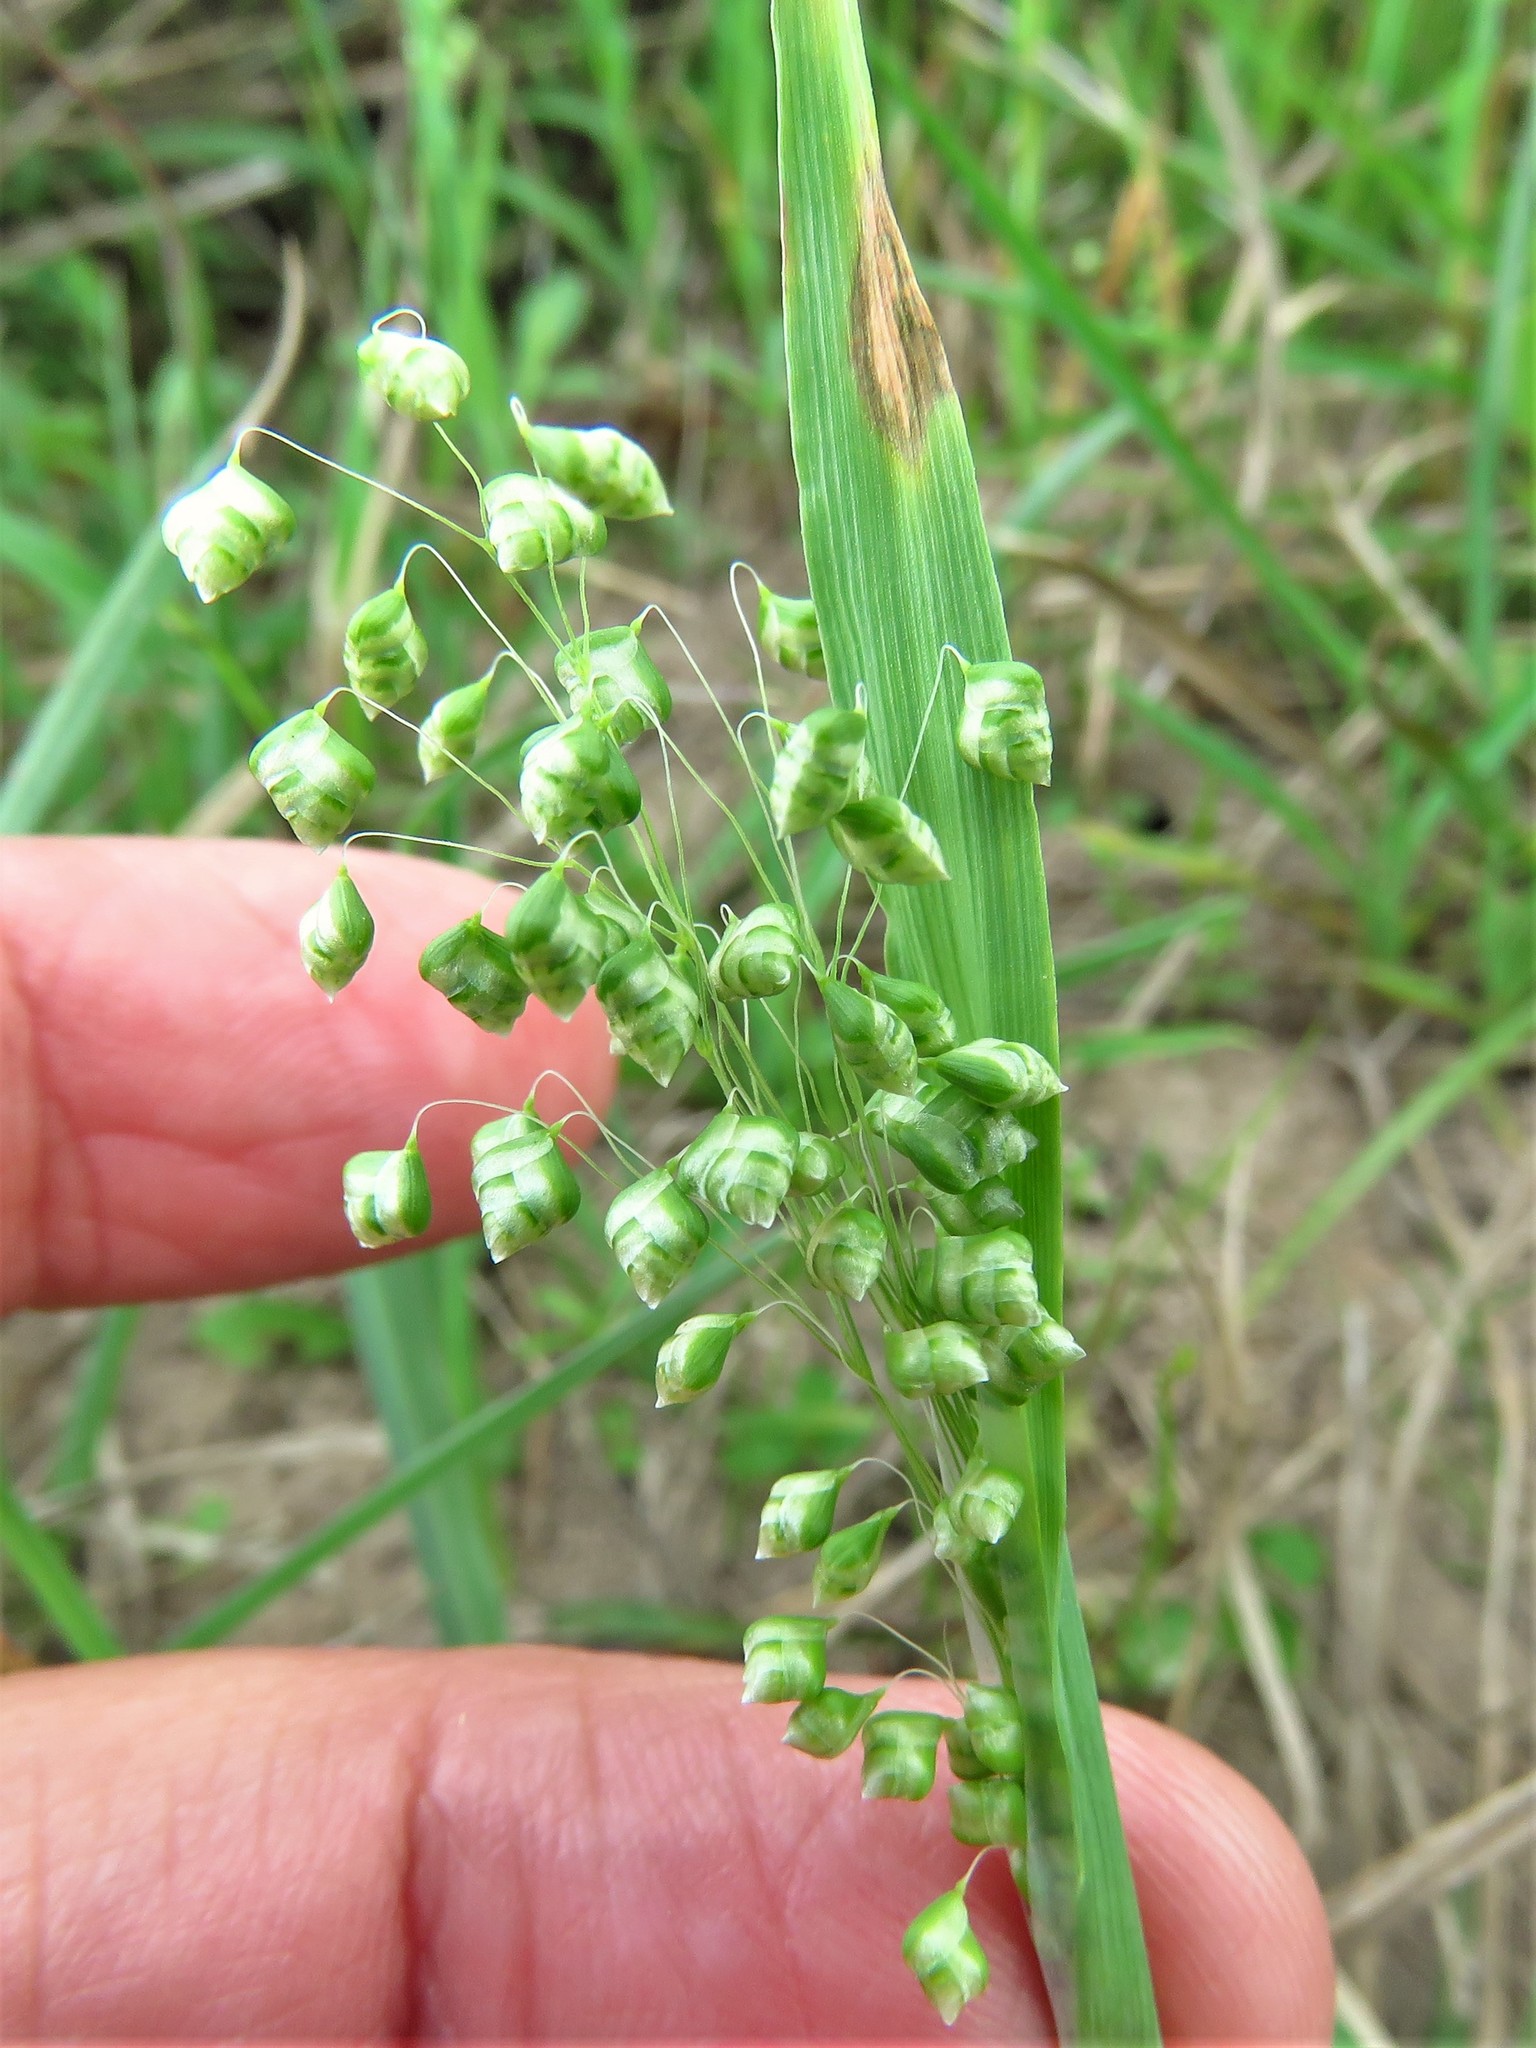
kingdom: Plantae
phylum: Tracheophyta
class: Liliopsida
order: Poales
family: Poaceae
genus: Briza
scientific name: Briza minor
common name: Lesser quaking-grass
